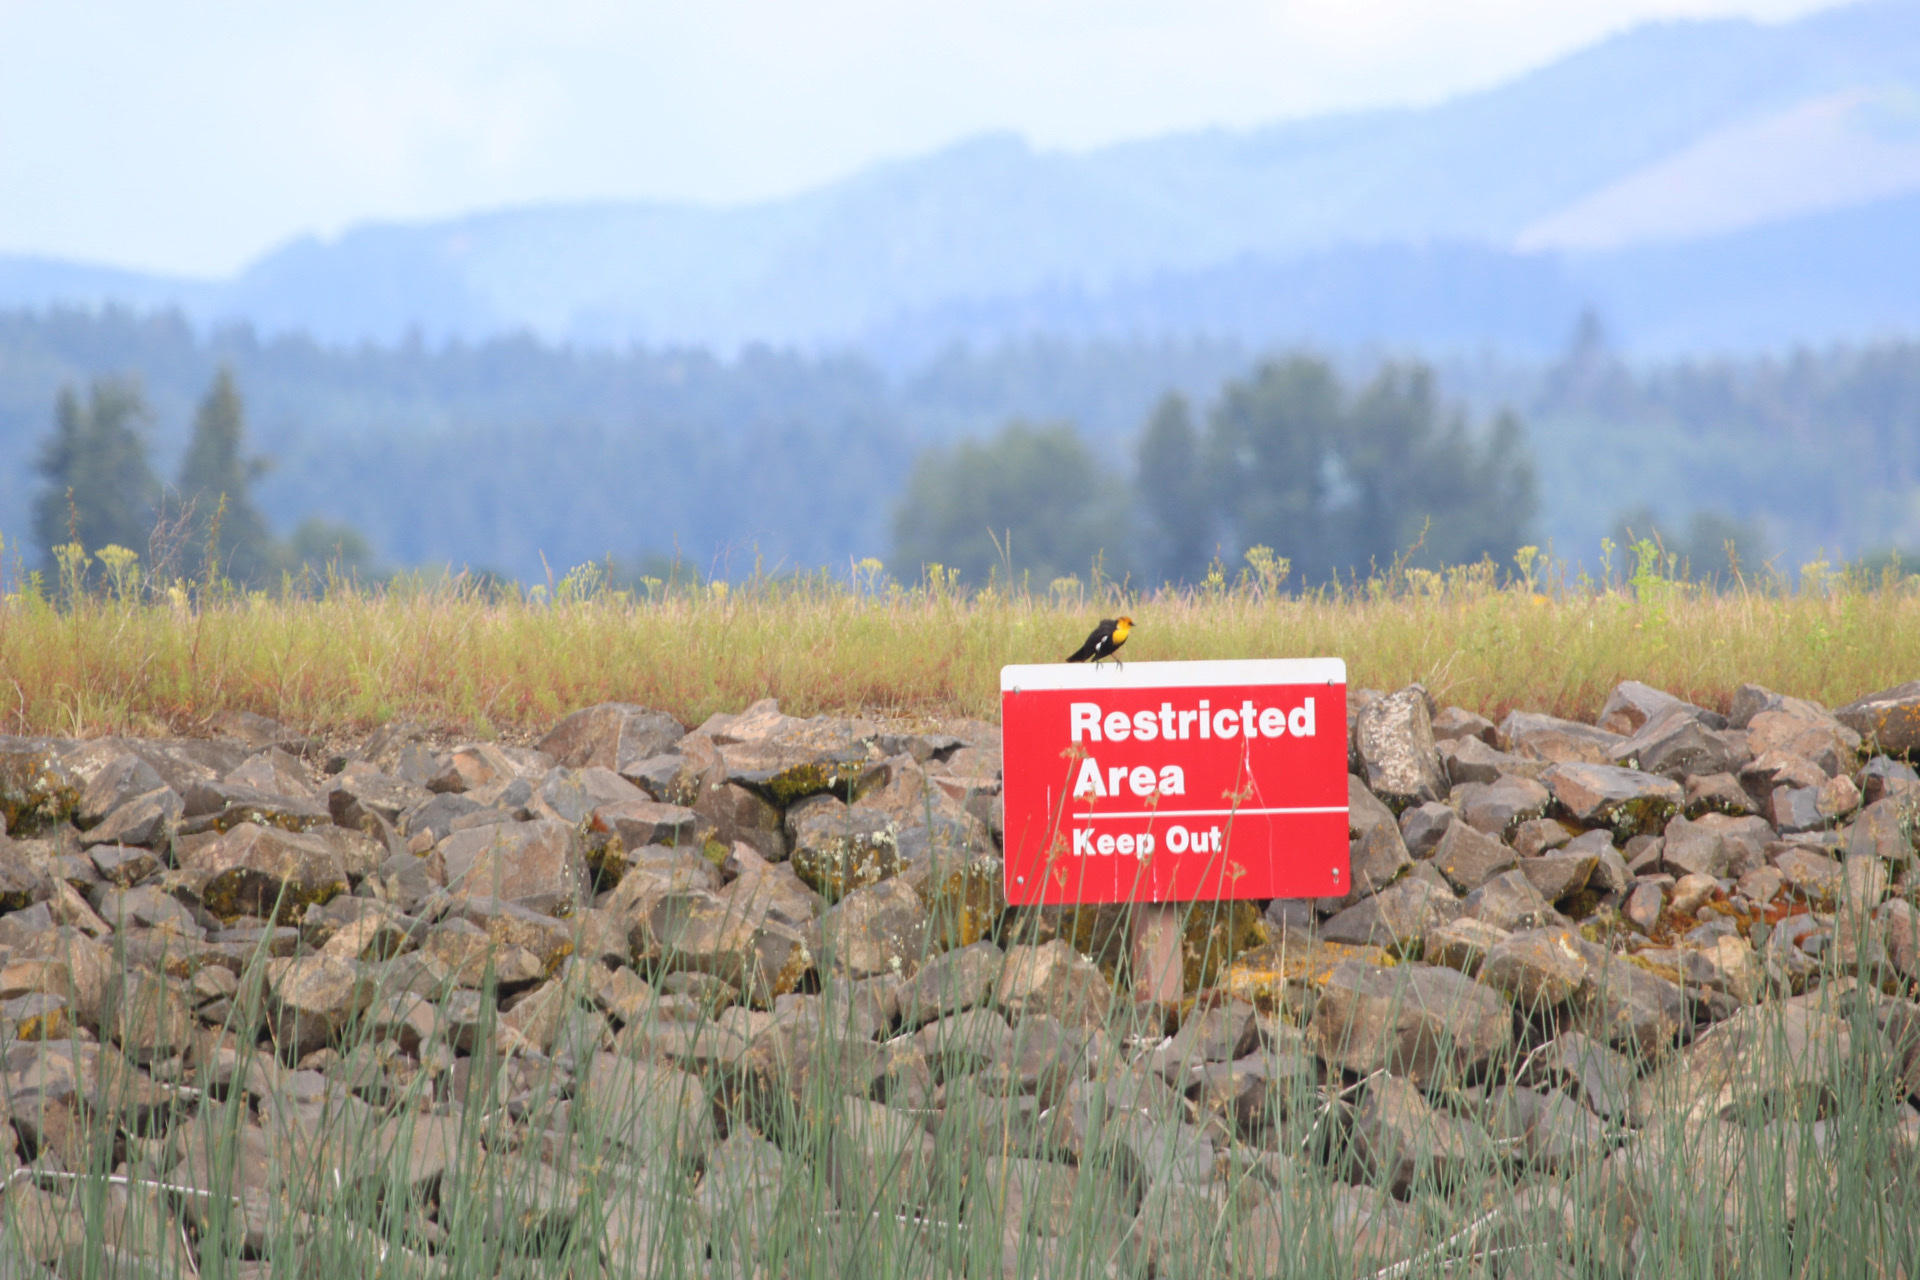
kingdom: Animalia
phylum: Chordata
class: Aves
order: Passeriformes
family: Icteridae
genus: Xanthocephalus
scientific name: Xanthocephalus xanthocephalus
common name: Yellow-headed blackbird
